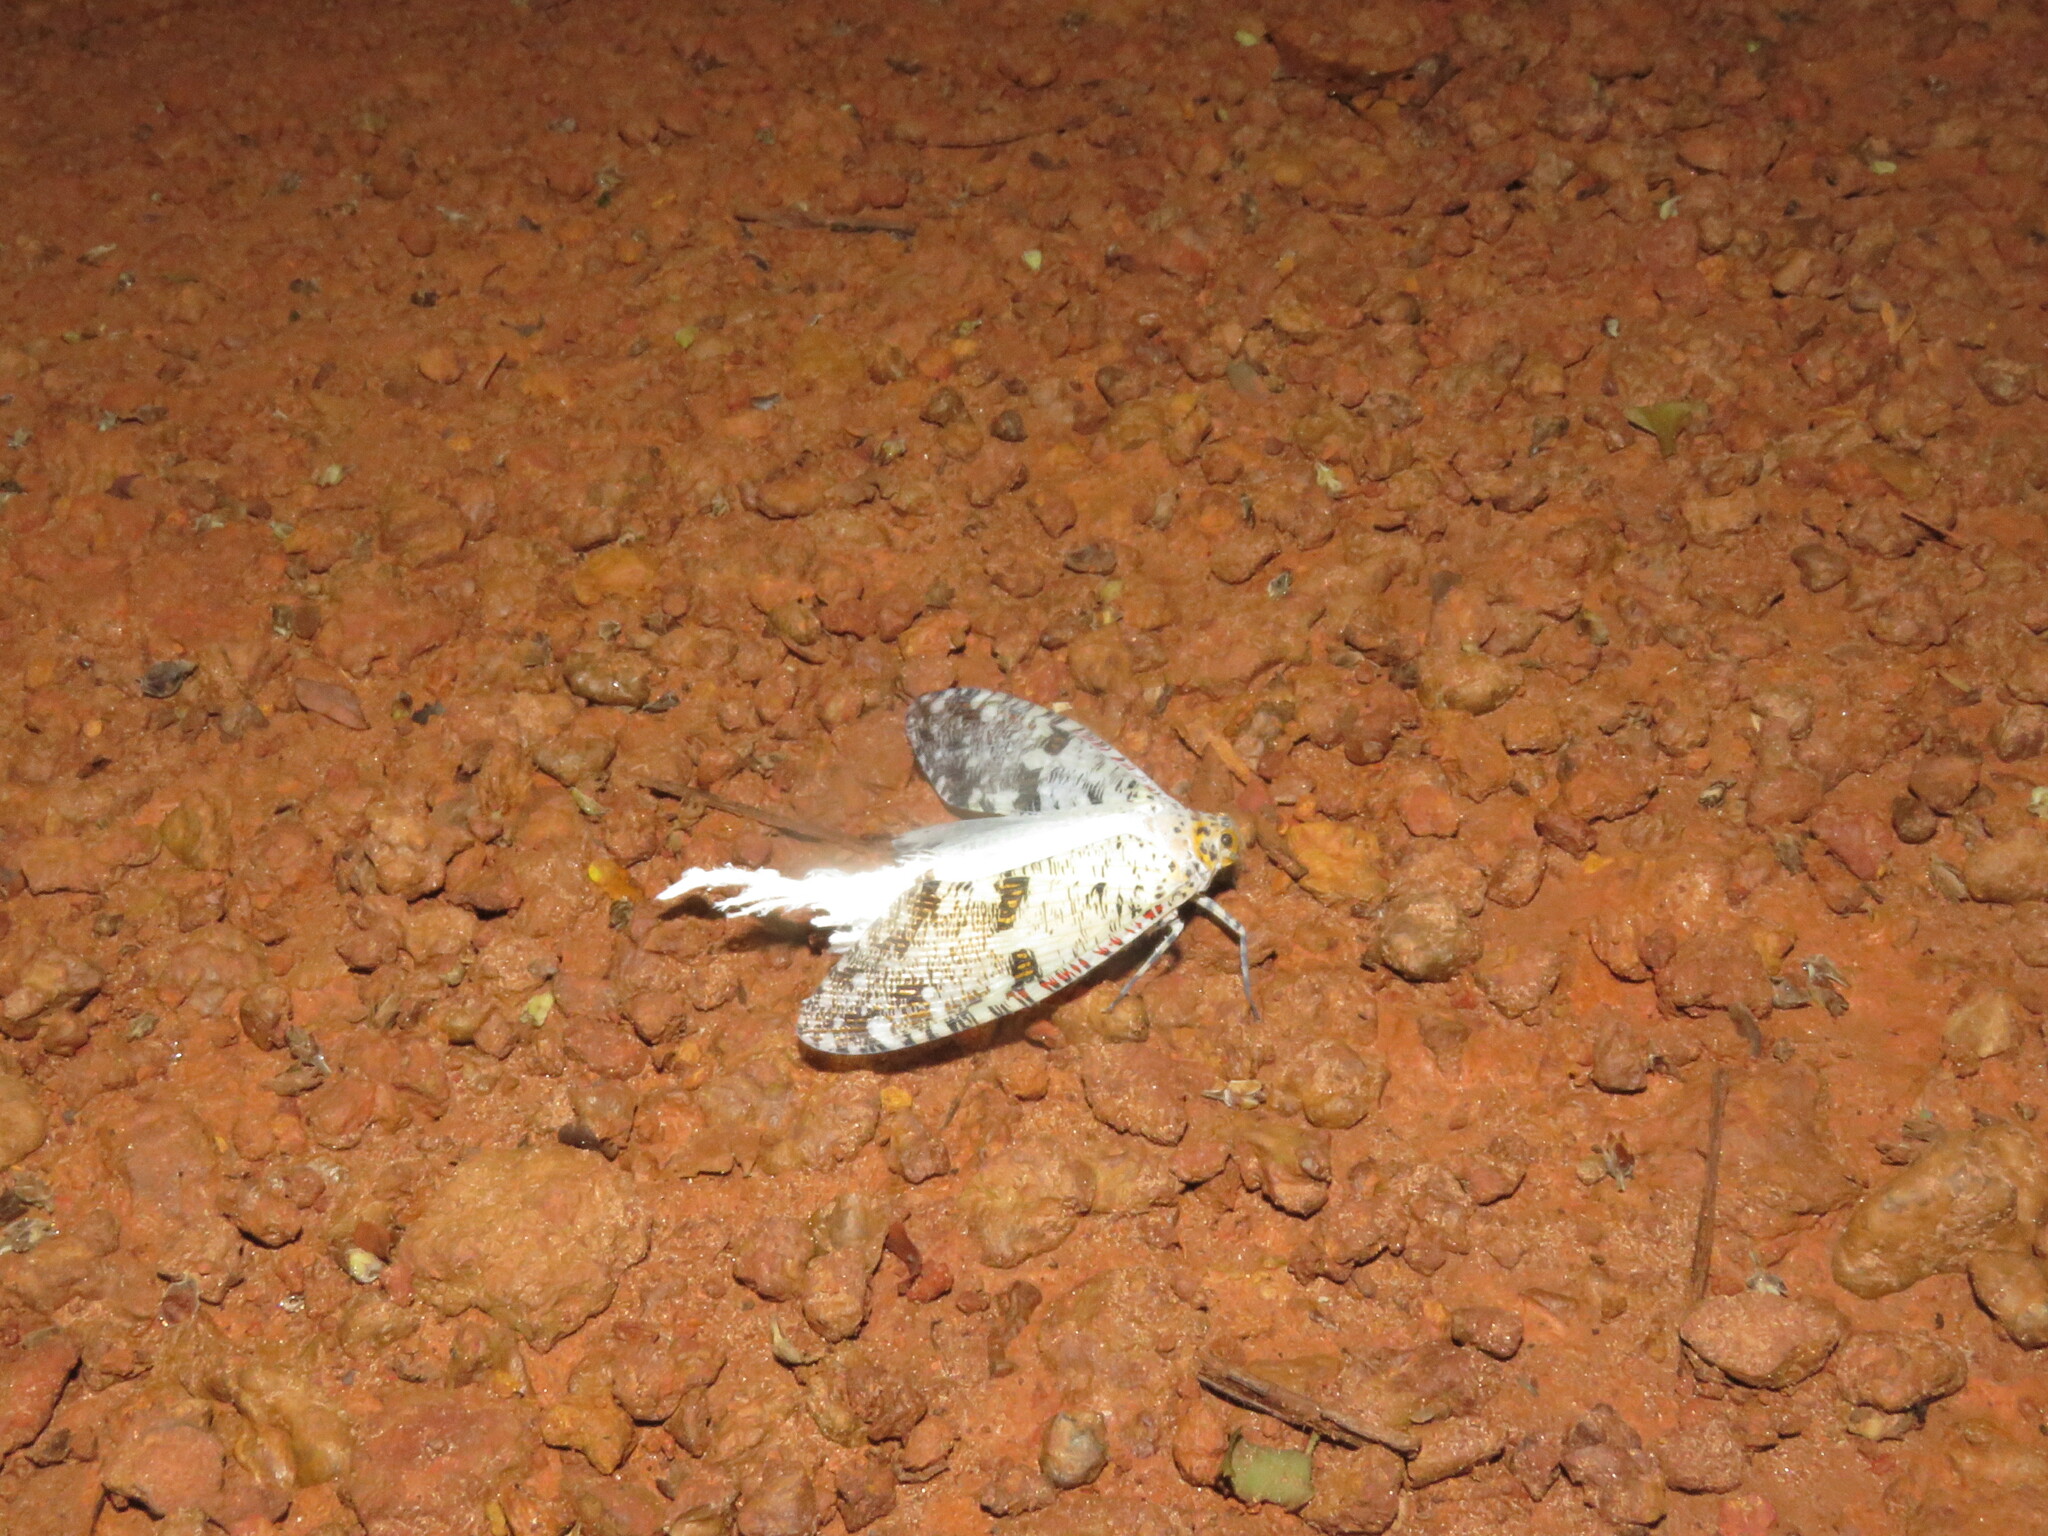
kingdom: Animalia
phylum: Arthropoda
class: Insecta
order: Hemiptera
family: Fulgoridae
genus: Phenax
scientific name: Phenax variegata
